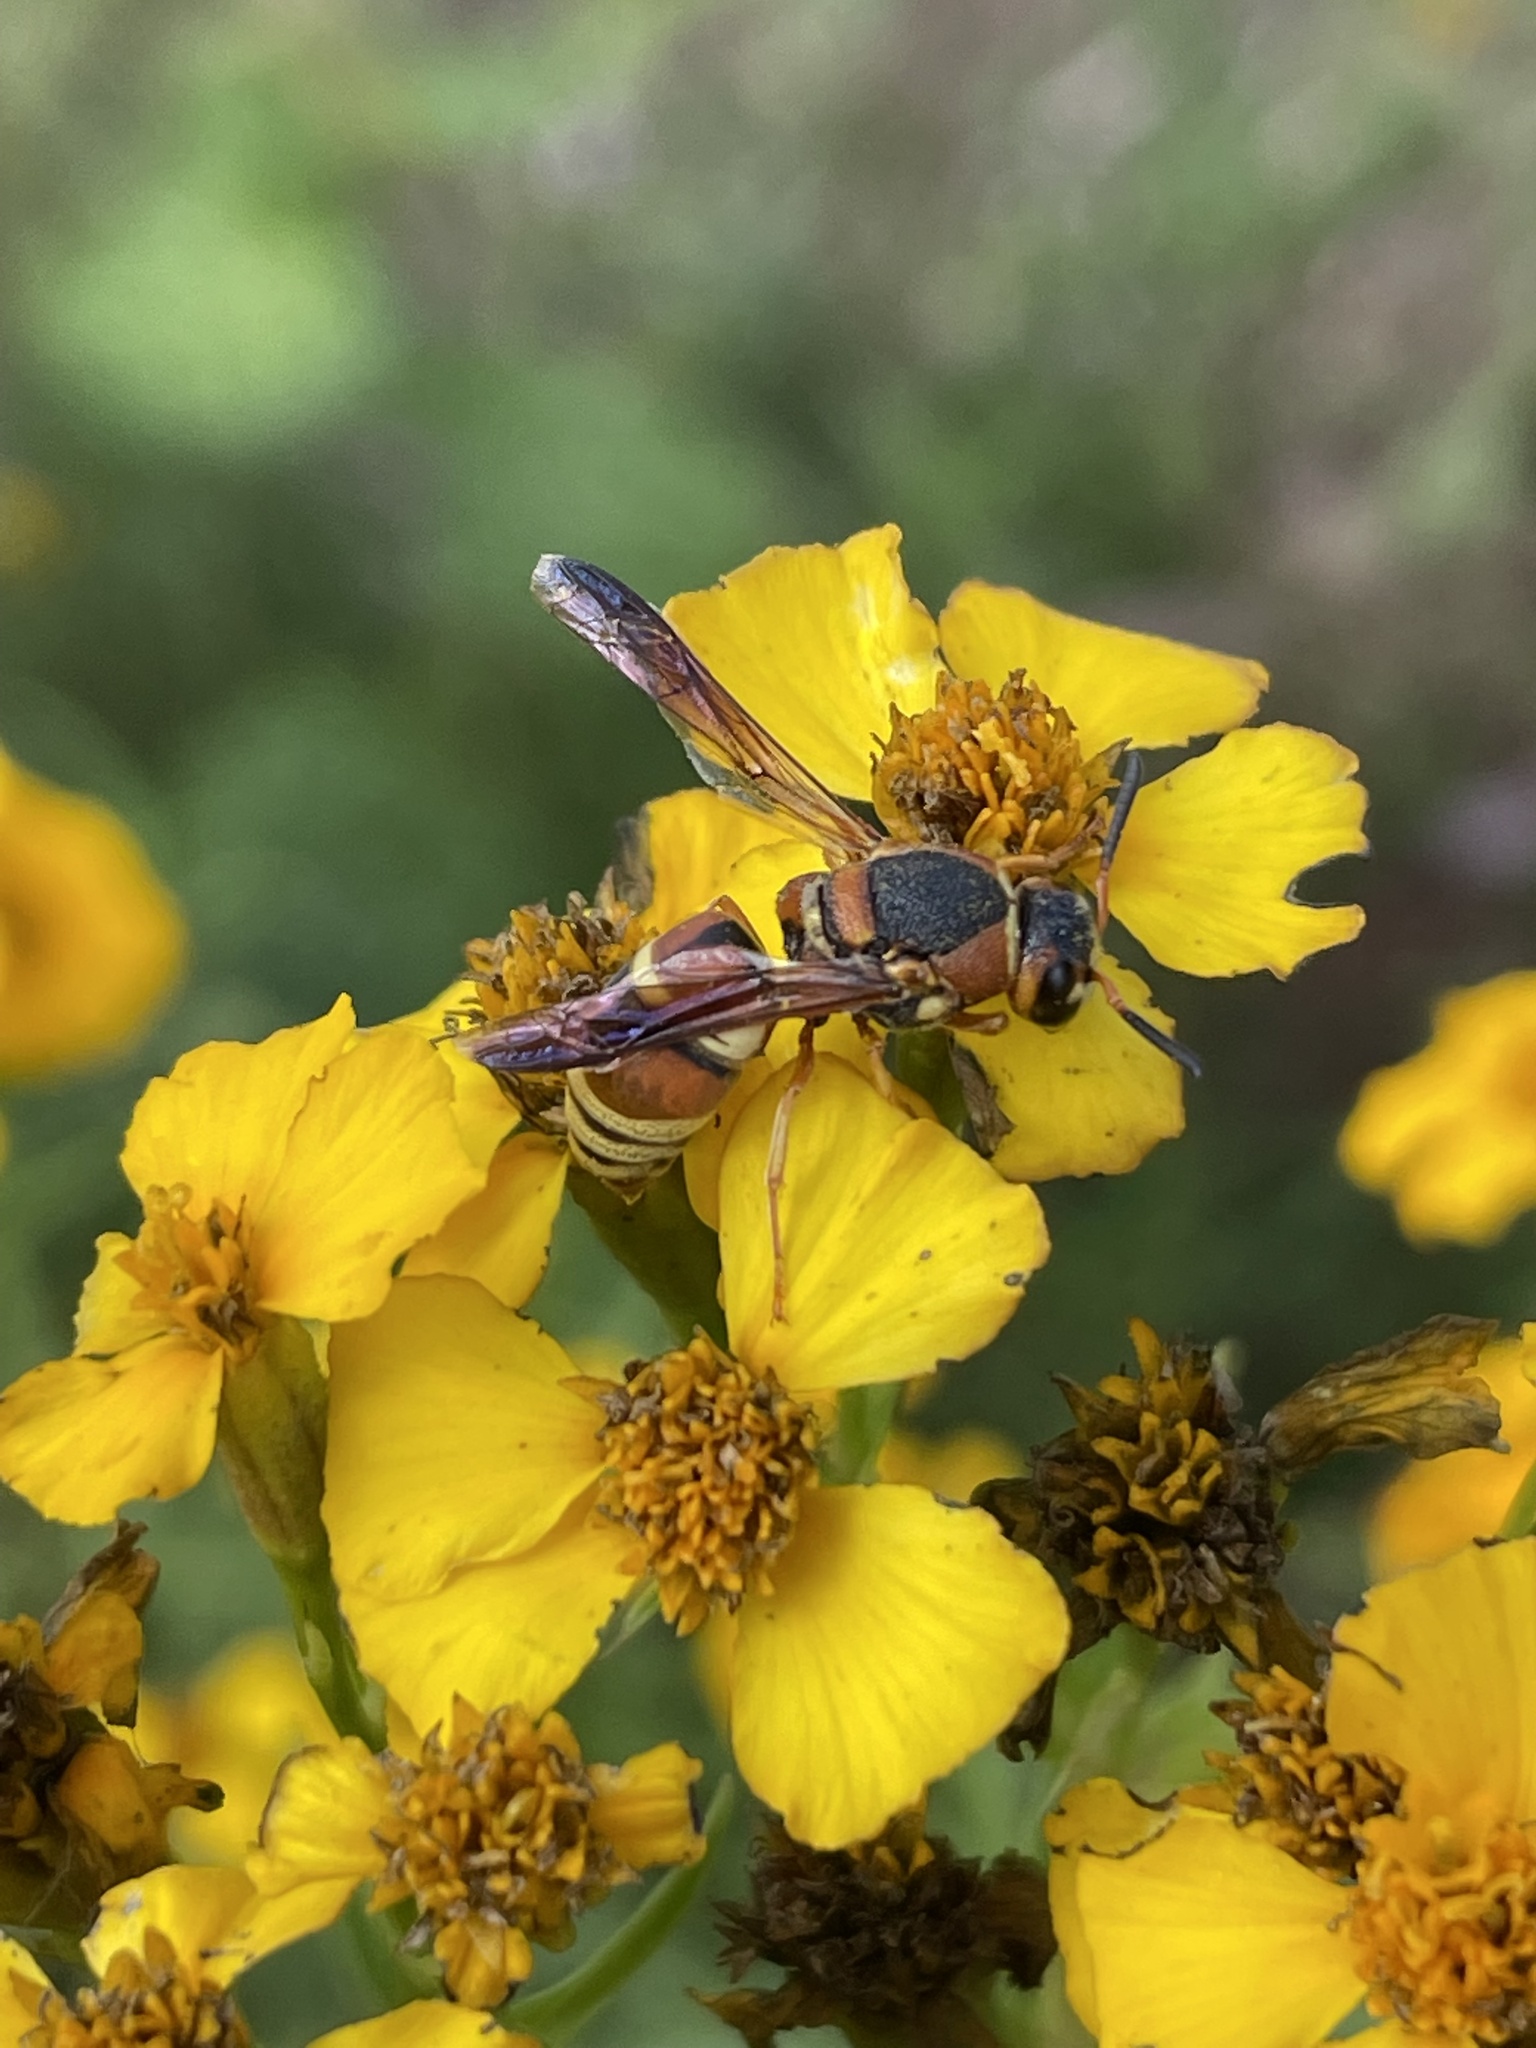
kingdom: Animalia
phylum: Arthropoda
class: Insecta
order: Hymenoptera
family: Eumenidae
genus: Euodynerus
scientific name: Euodynerus hidalgo
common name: Wasp
